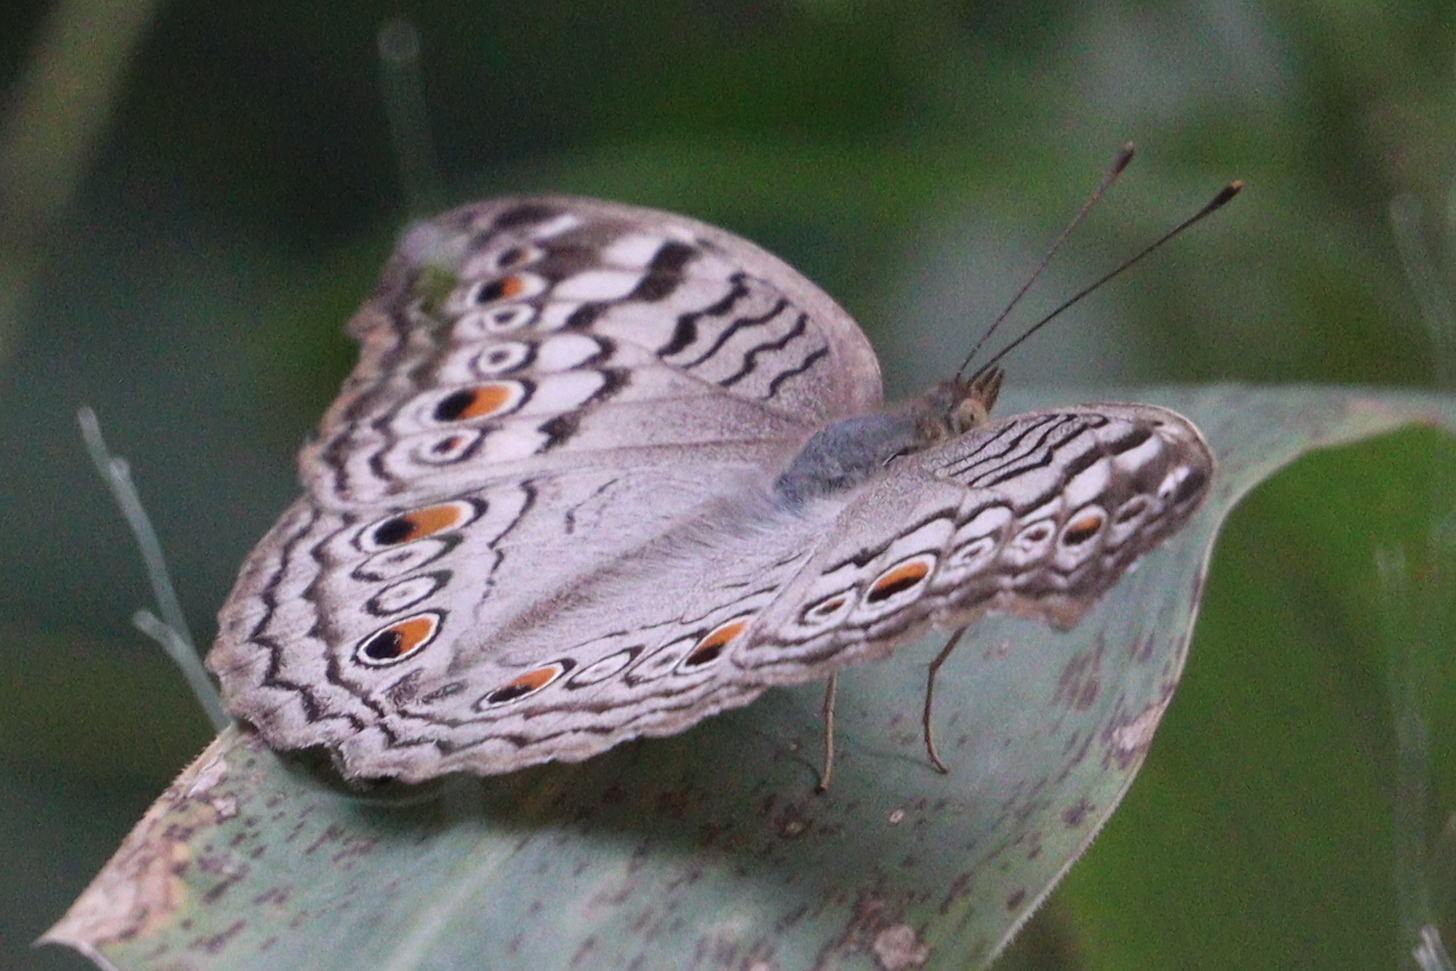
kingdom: Animalia
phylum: Arthropoda
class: Insecta
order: Lepidoptera
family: Nymphalidae
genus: Junonia
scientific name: Junonia atlites
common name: Grey pansy
